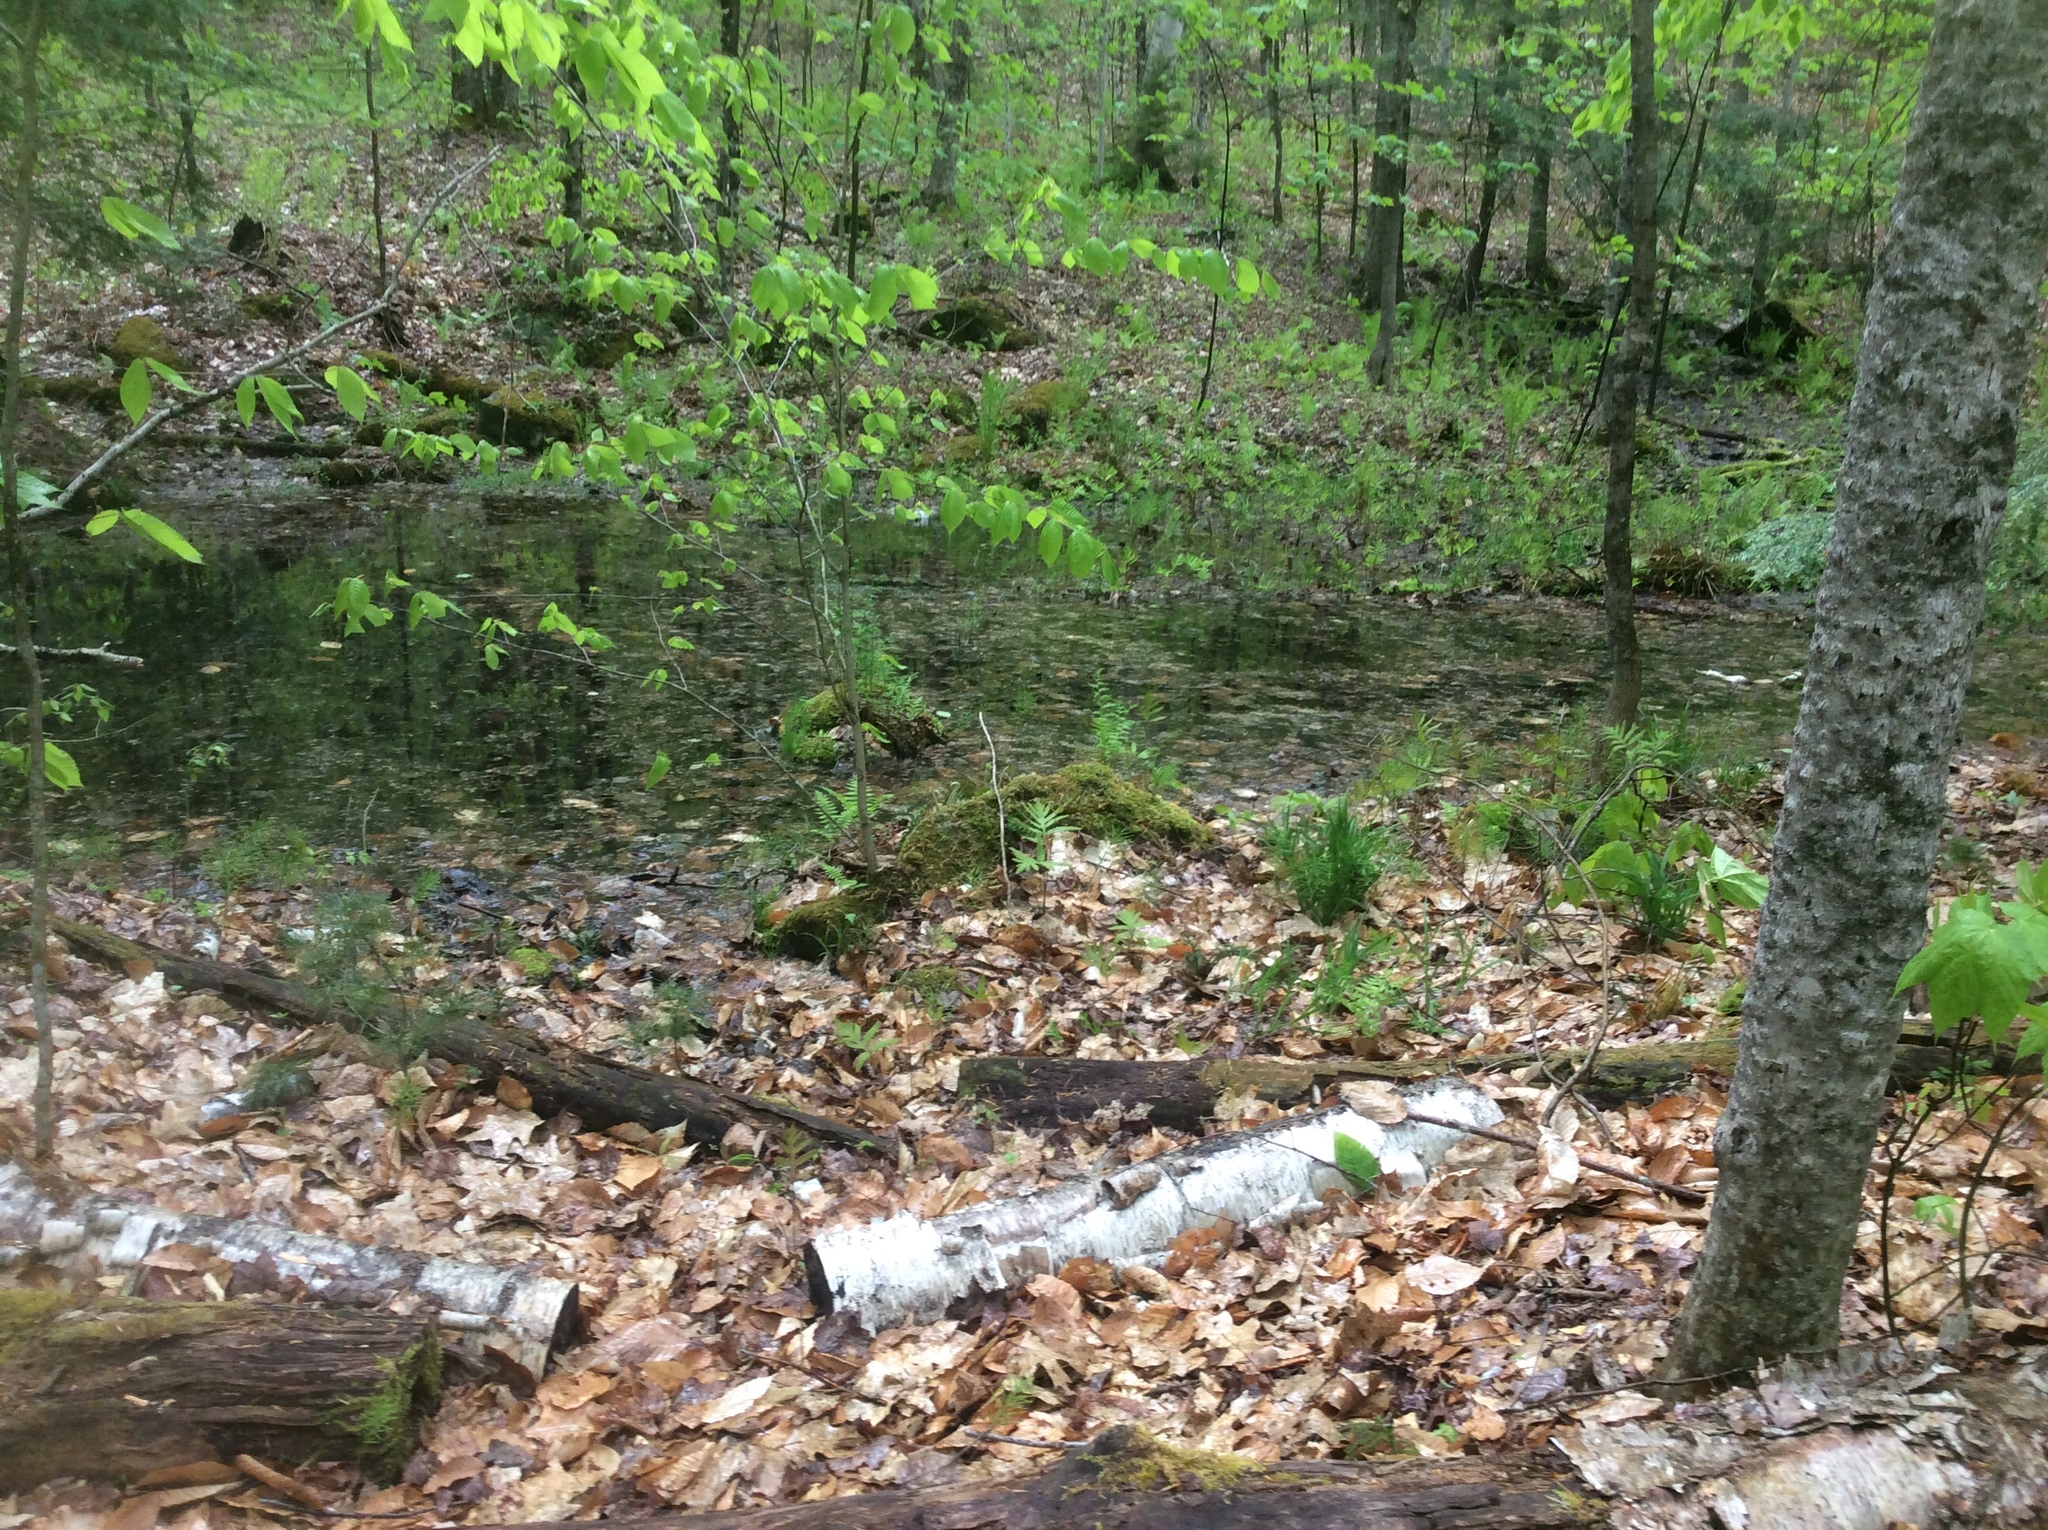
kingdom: Plantae
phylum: Tracheophyta
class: Magnoliopsida
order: Fagales
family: Fagaceae
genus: Fagus
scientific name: Fagus grandifolia
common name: American beech
